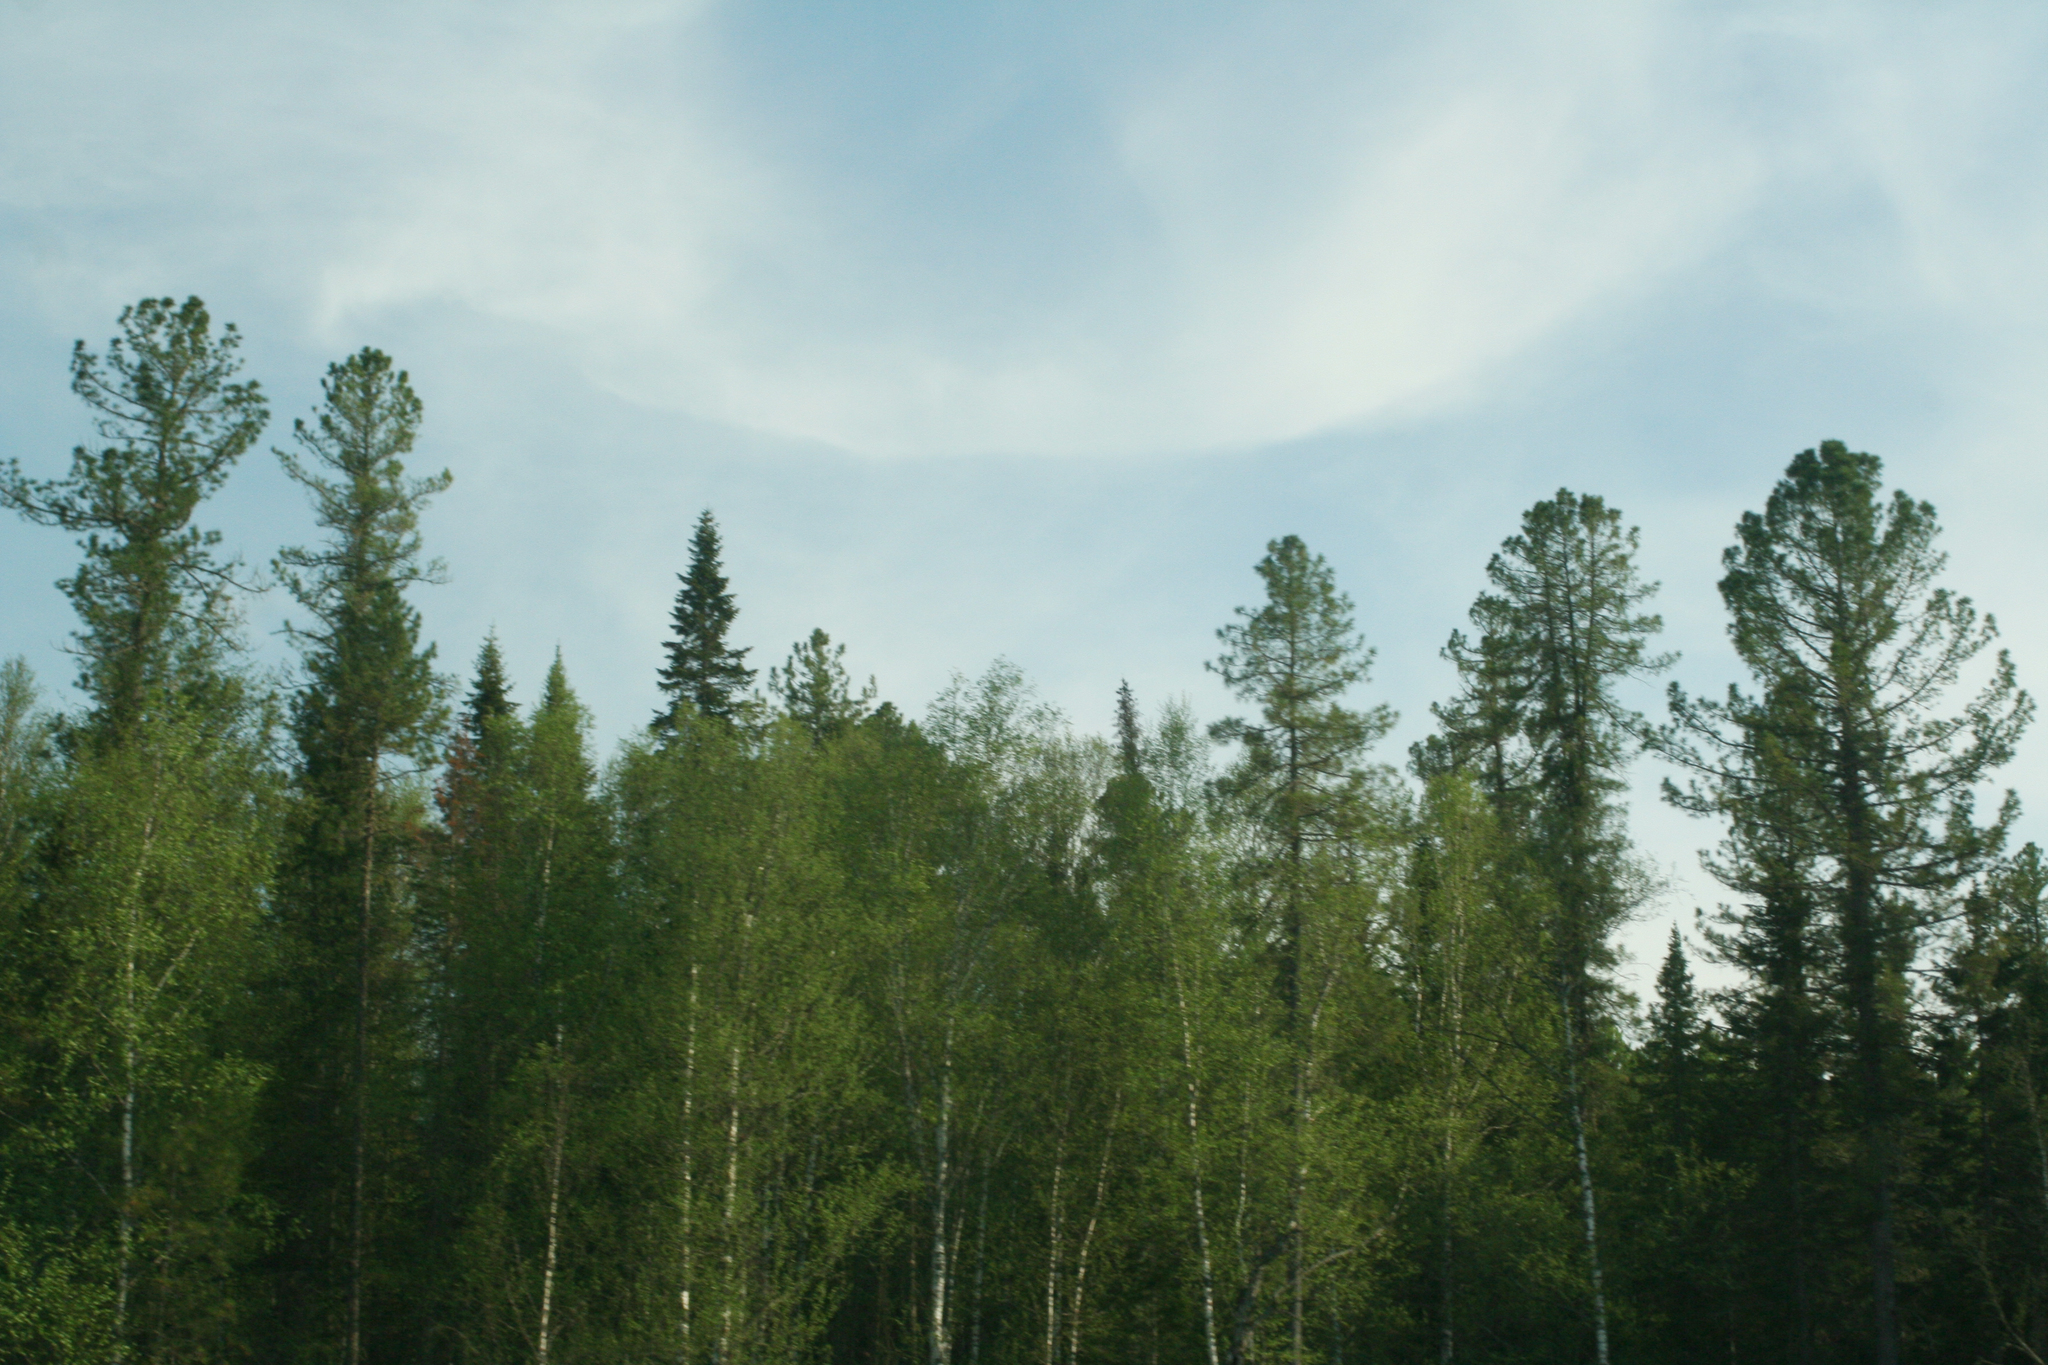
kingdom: Plantae
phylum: Tracheophyta
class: Pinopsida
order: Pinales
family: Pinaceae
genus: Pinus
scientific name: Pinus sibirica
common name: Siberian pine
